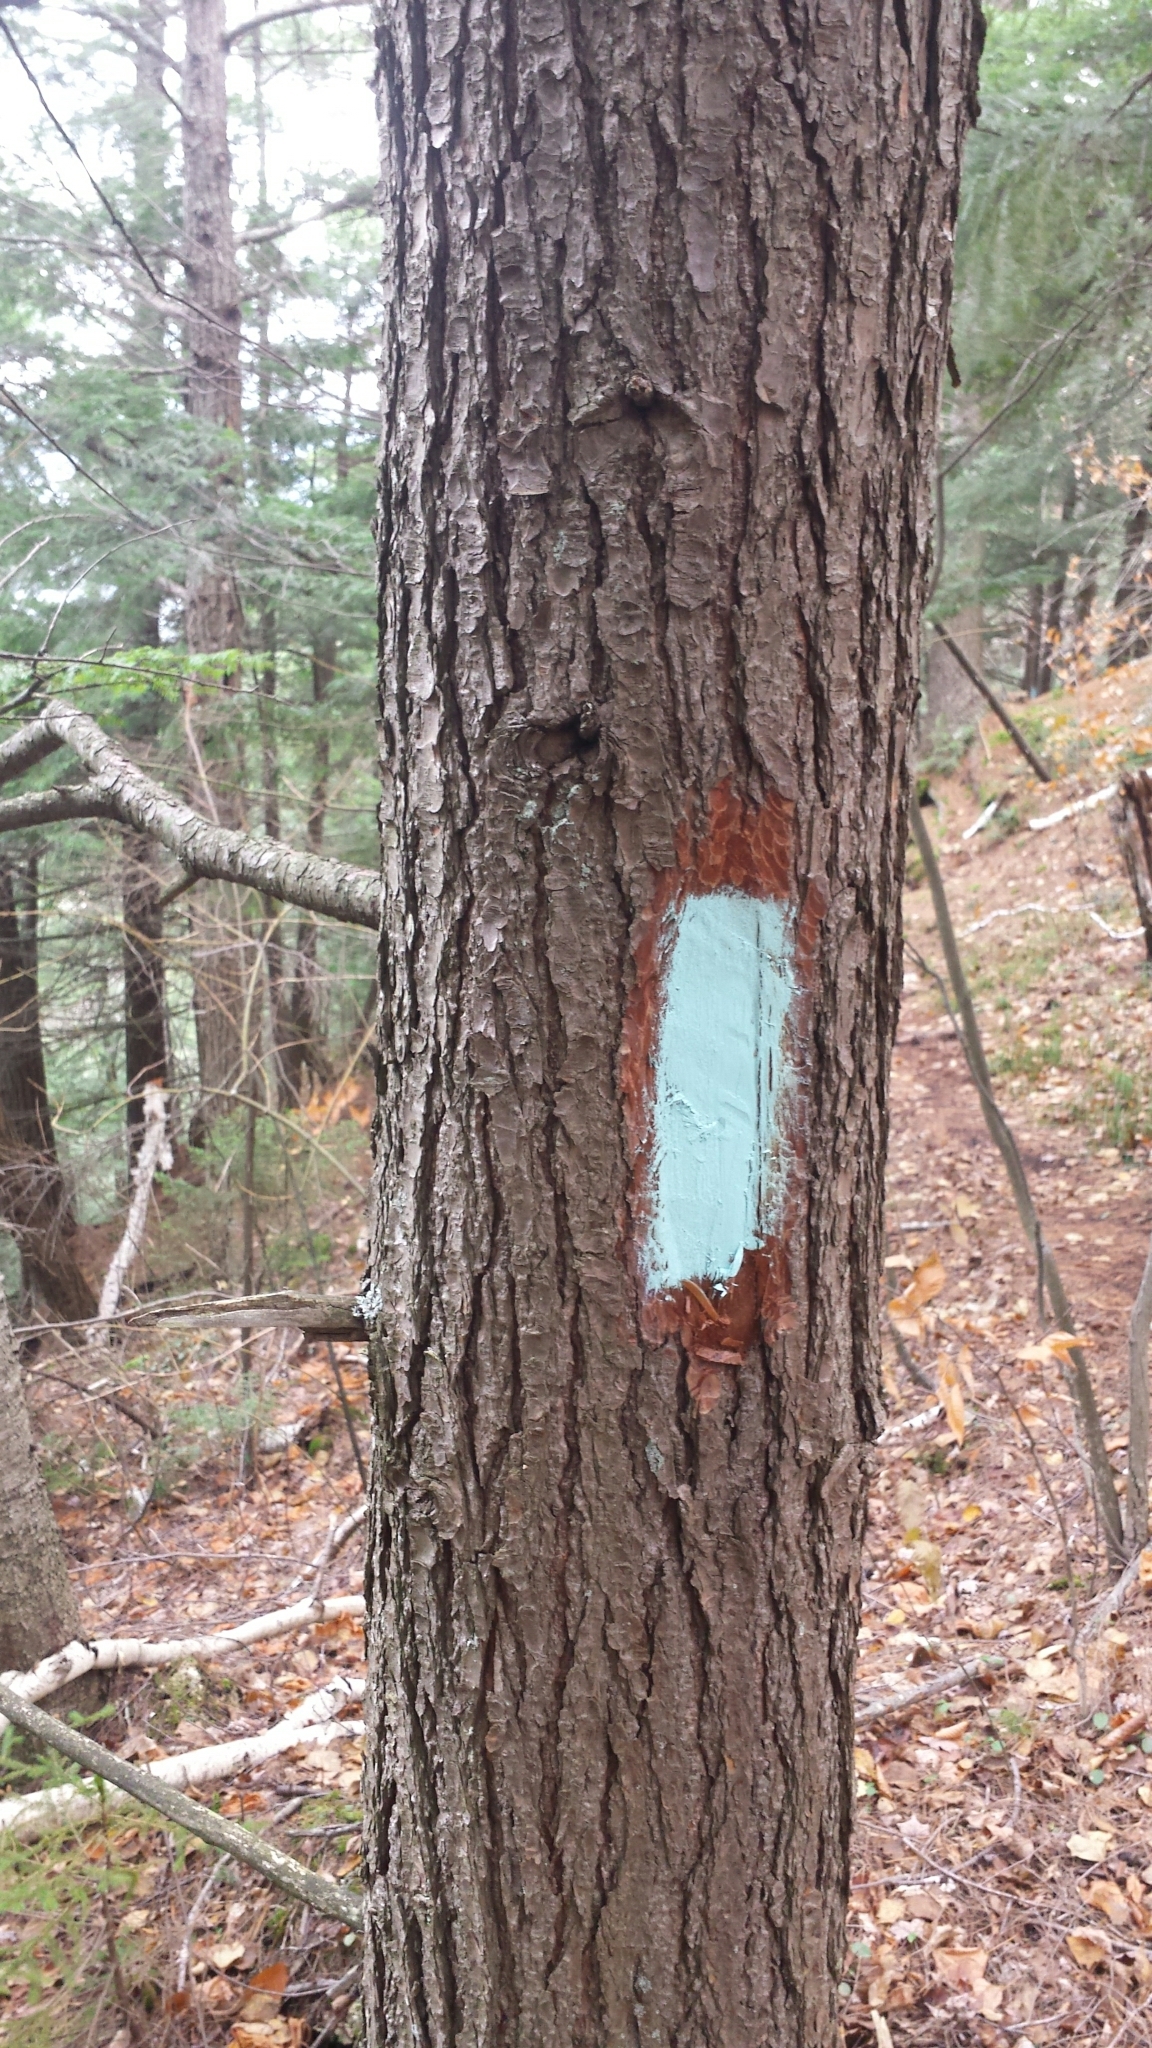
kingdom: Plantae
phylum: Tracheophyta
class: Pinopsida
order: Pinales
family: Pinaceae
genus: Tsuga
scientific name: Tsuga canadensis
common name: Eastern hemlock
